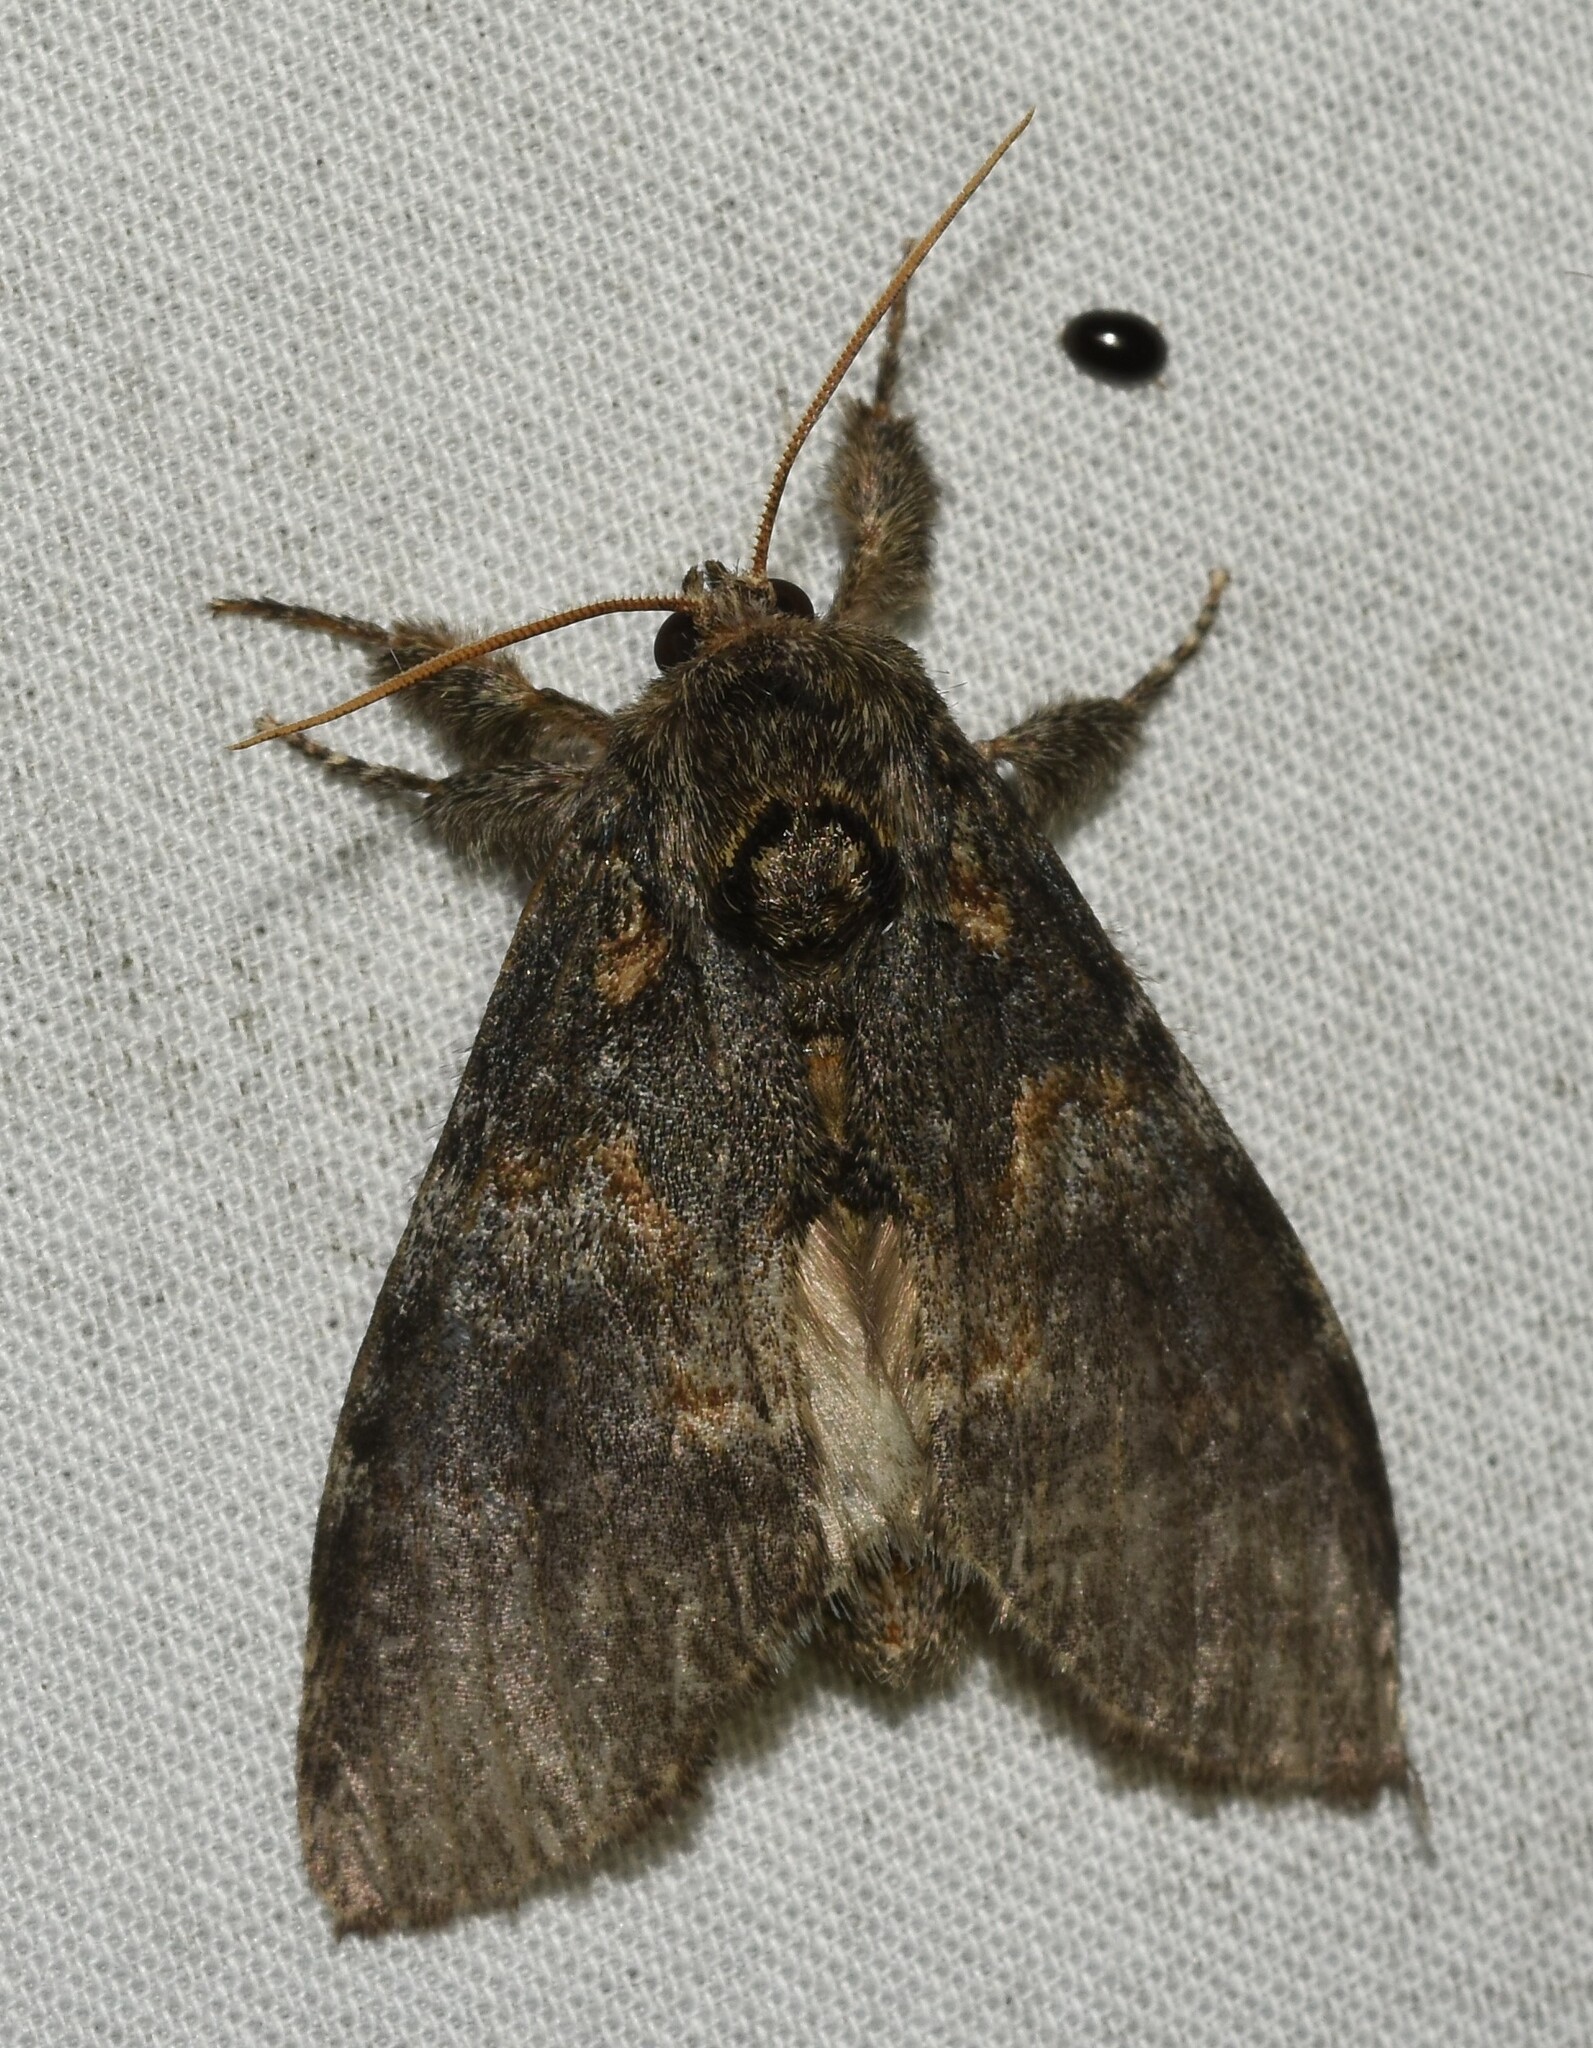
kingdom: Animalia
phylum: Arthropoda
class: Insecta
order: Lepidoptera
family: Notodontidae
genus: Peridea
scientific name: Peridea angulosa
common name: Angulose prominent
